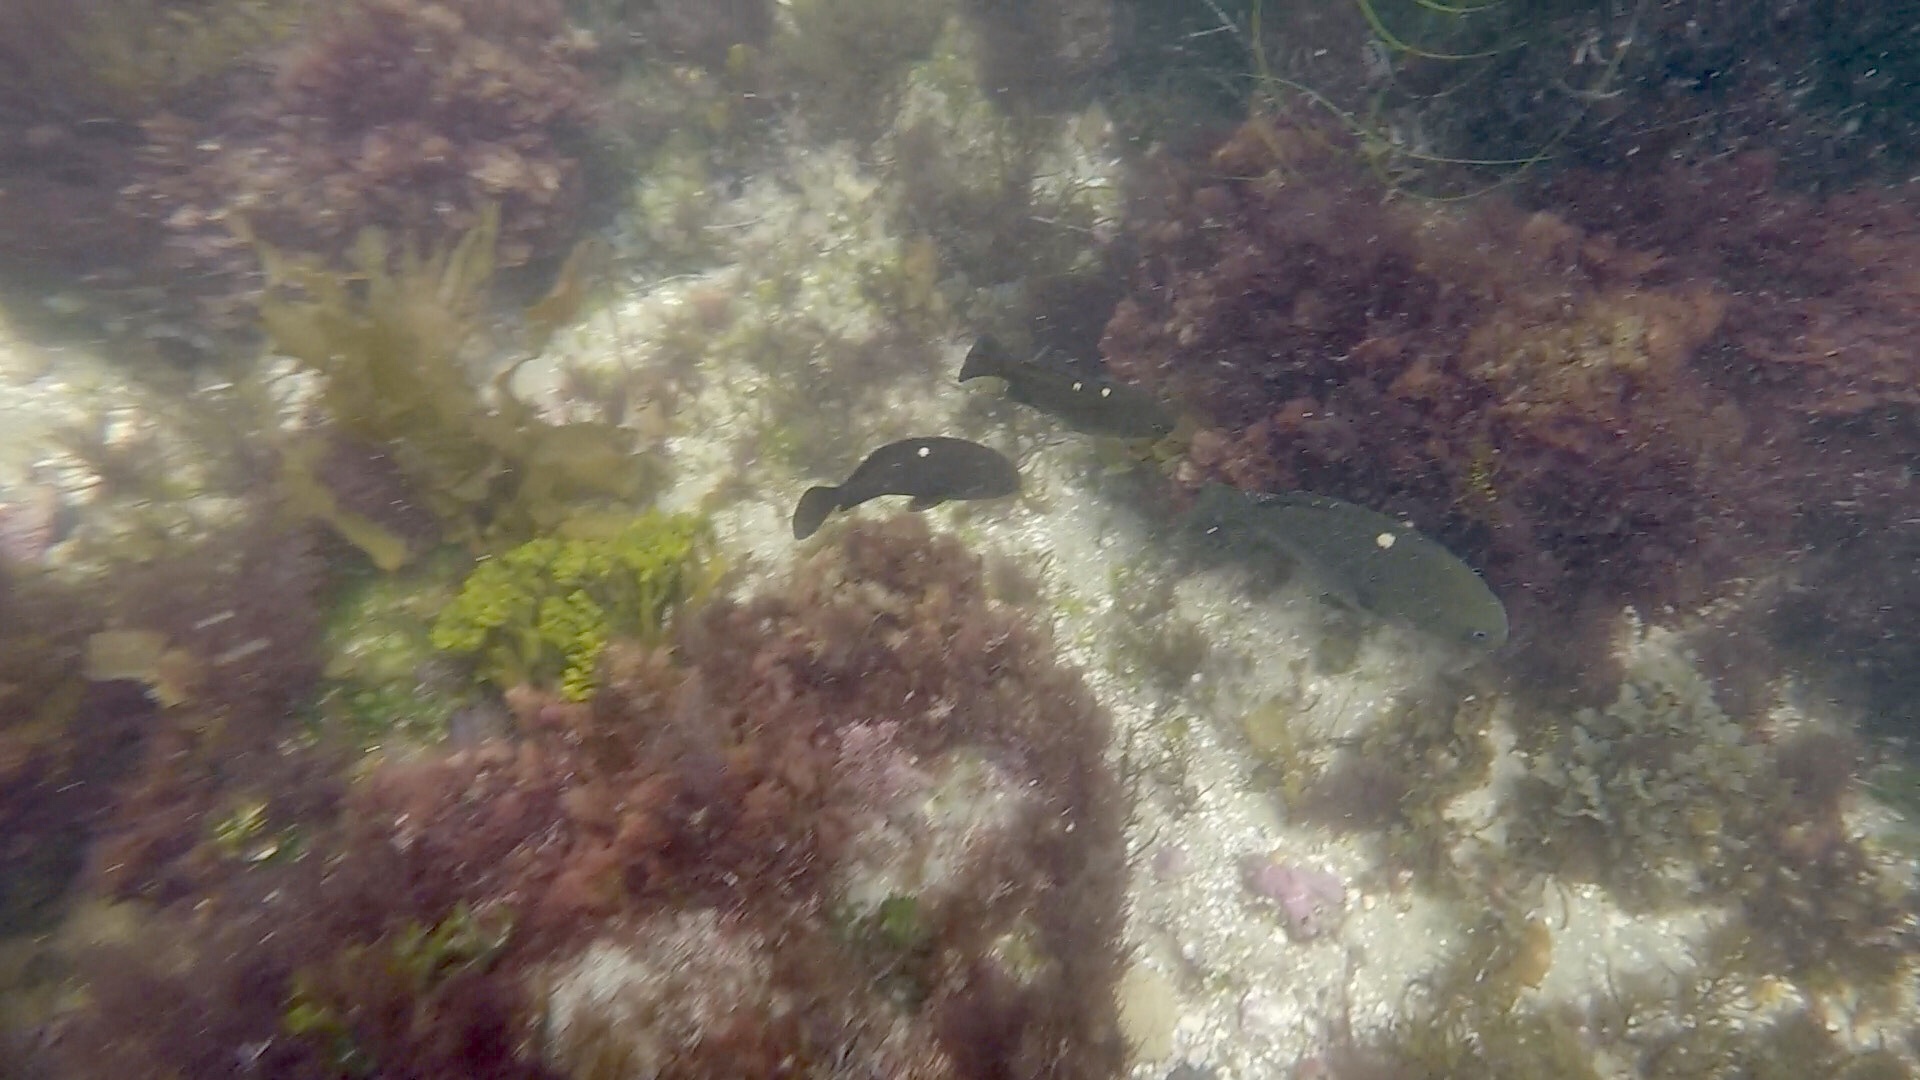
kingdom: Animalia
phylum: Chordata
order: Perciformes
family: Kyphosidae
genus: Girella
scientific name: Girella nigricans
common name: Opaleye
